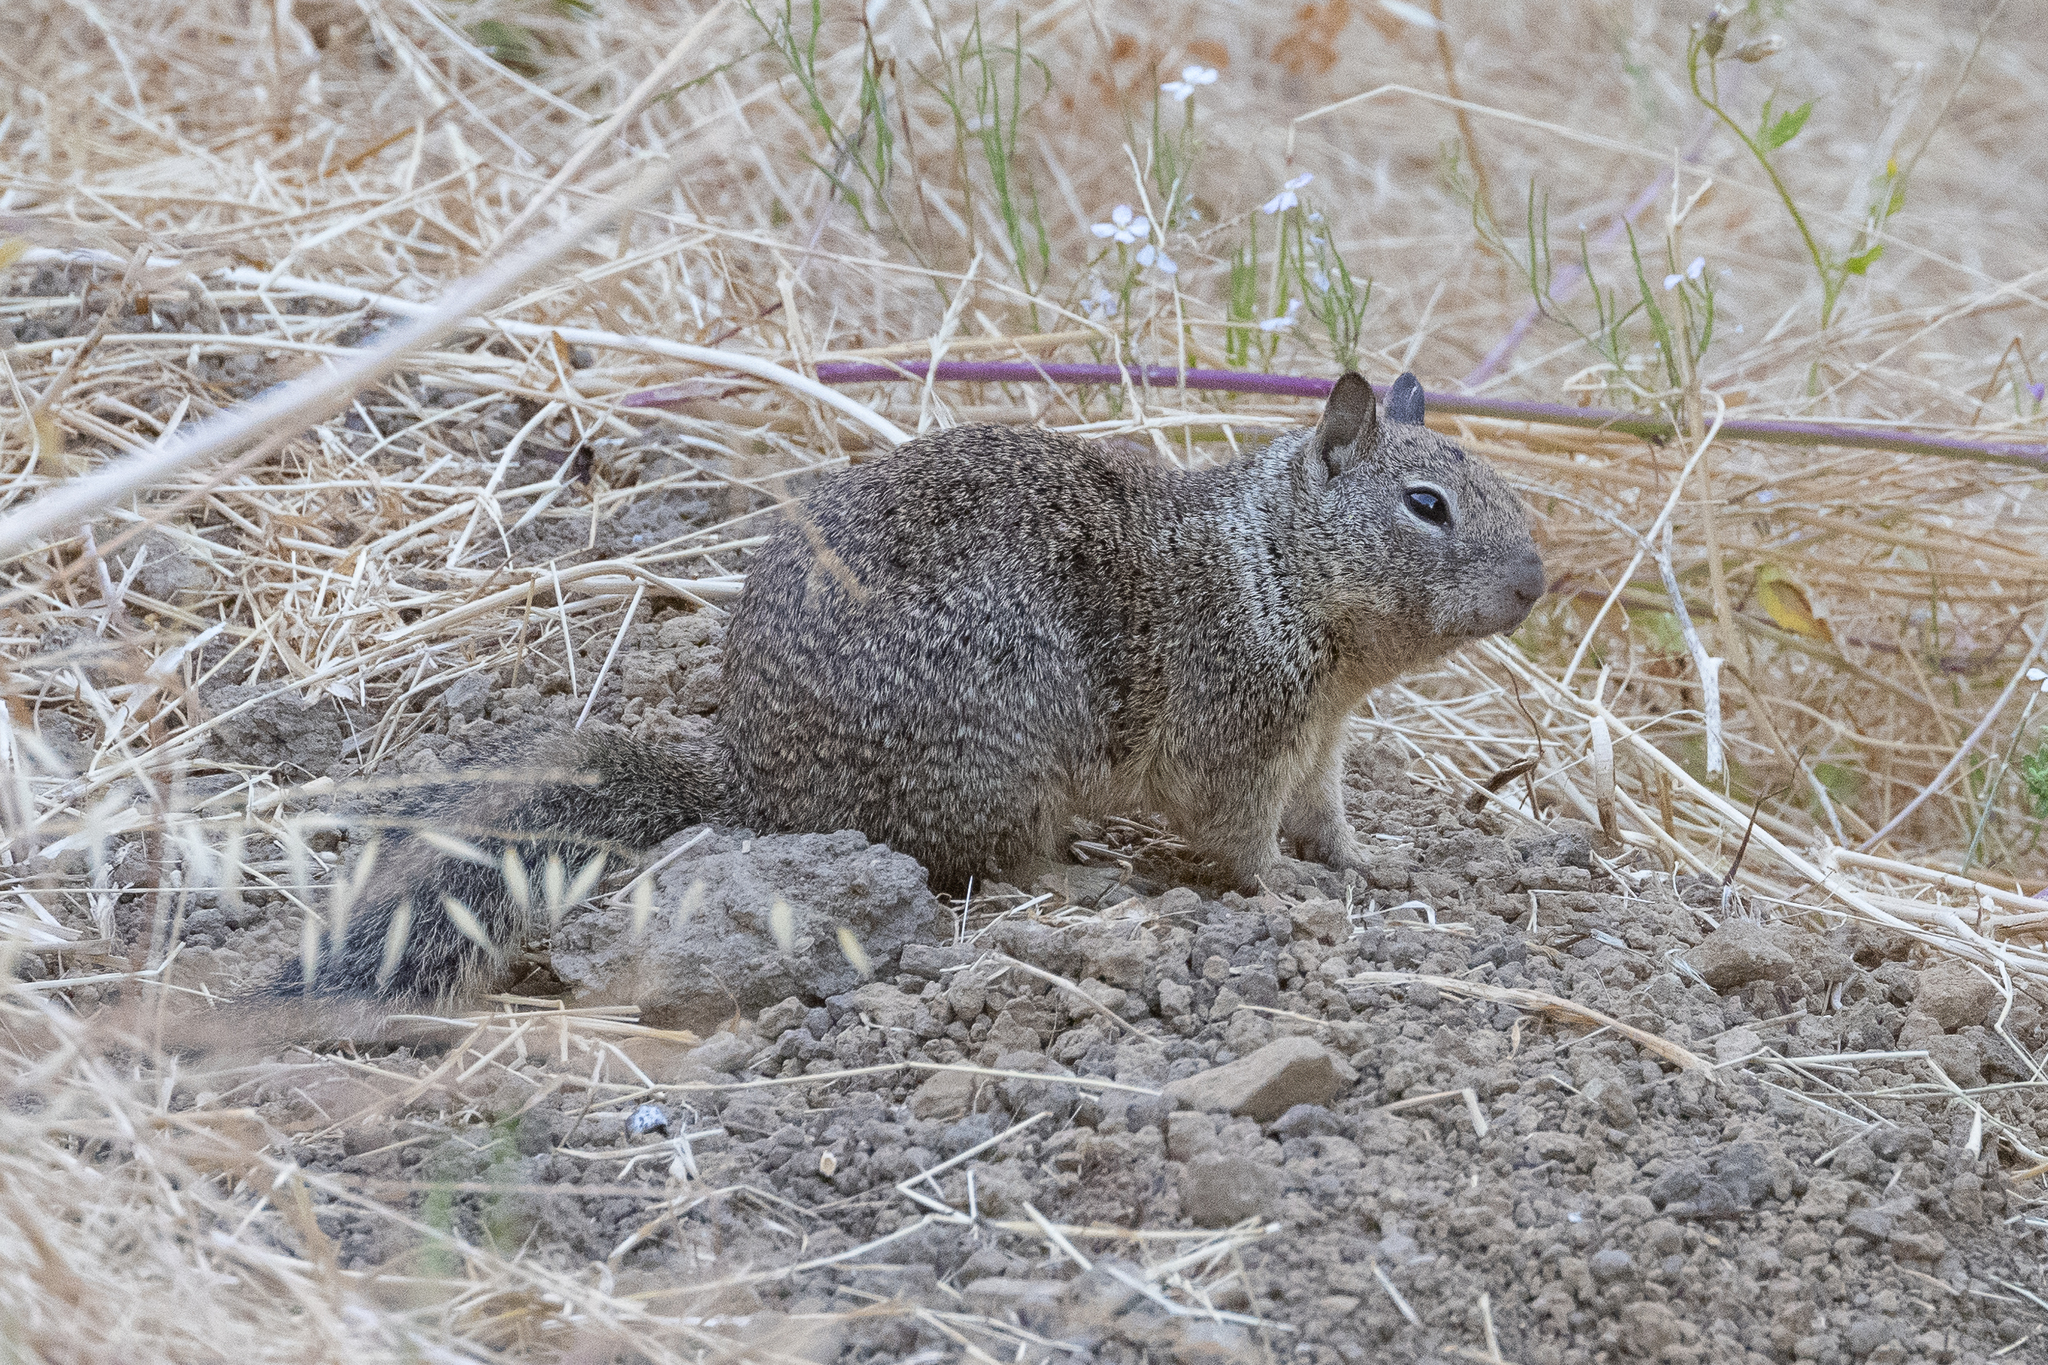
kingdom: Animalia
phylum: Chordata
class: Mammalia
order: Rodentia
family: Sciuridae
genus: Otospermophilus
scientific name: Otospermophilus beecheyi
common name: California ground squirrel
